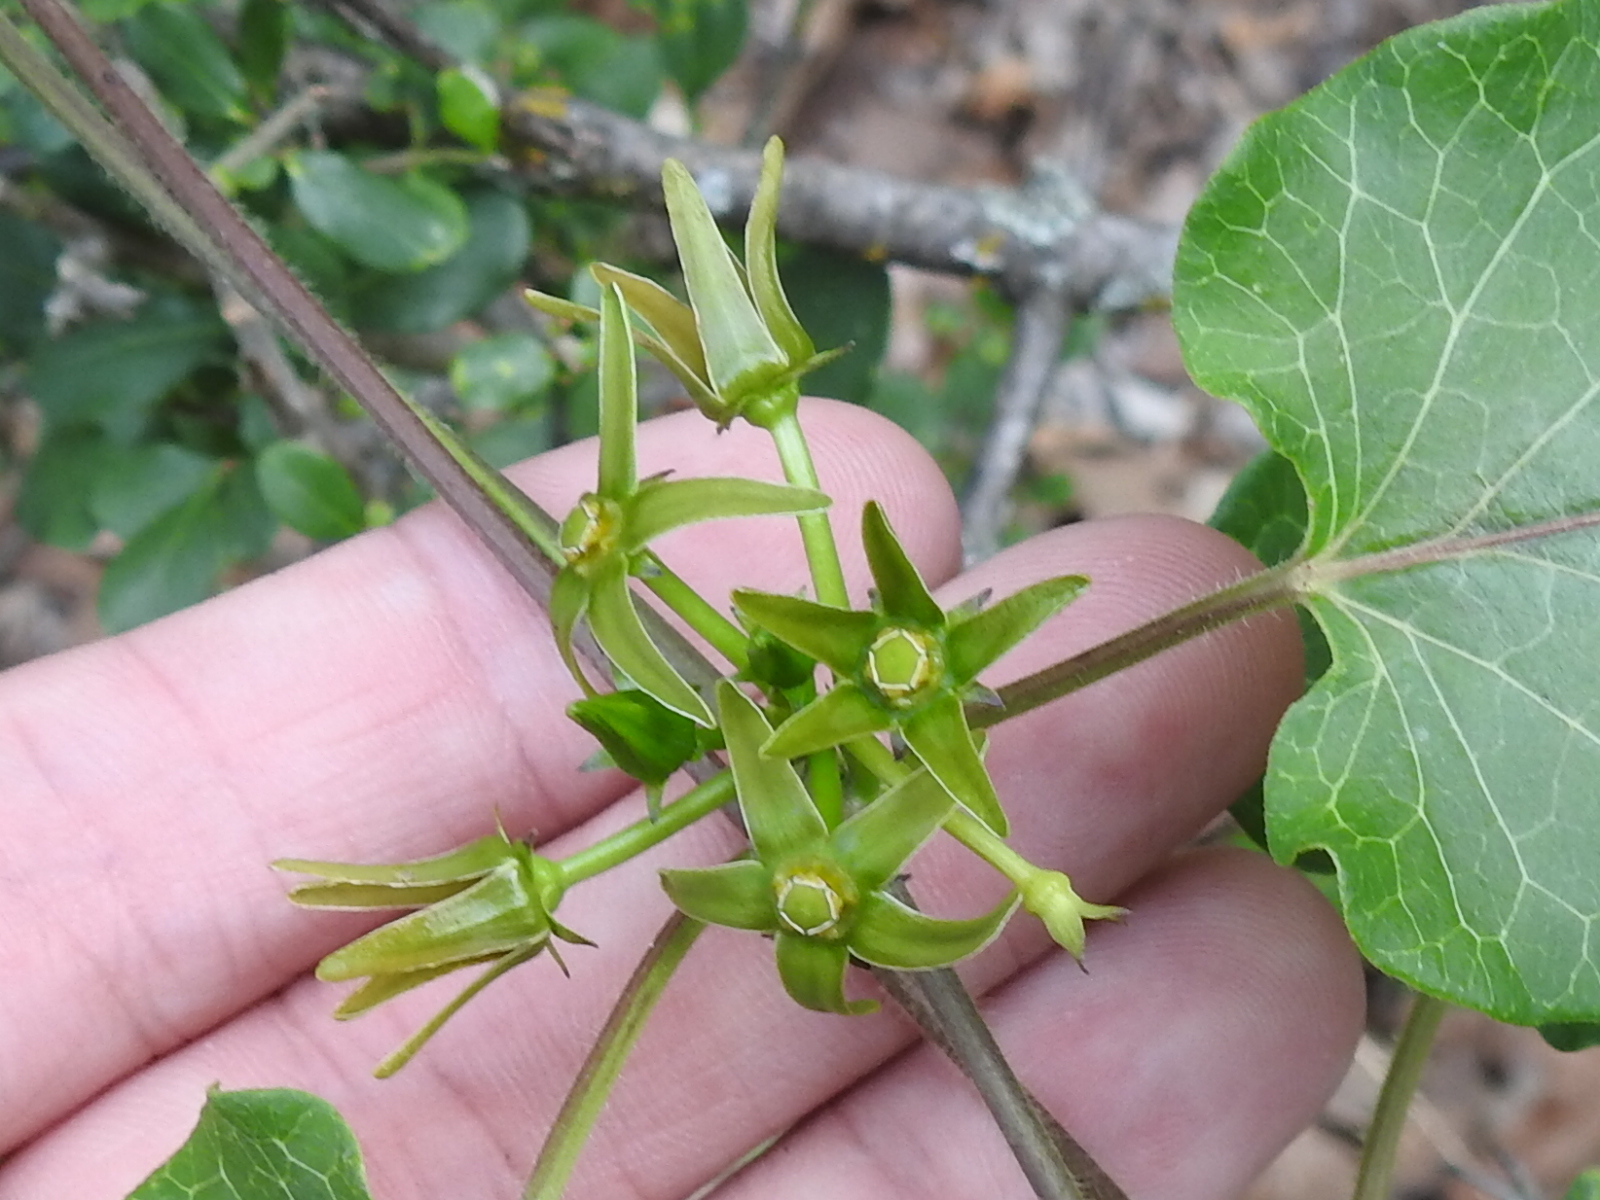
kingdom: Plantae
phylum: Tracheophyta
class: Magnoliopsida
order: Gentianales
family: Apocynaceae
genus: Gonolobus
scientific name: Gonolobus suberosus
